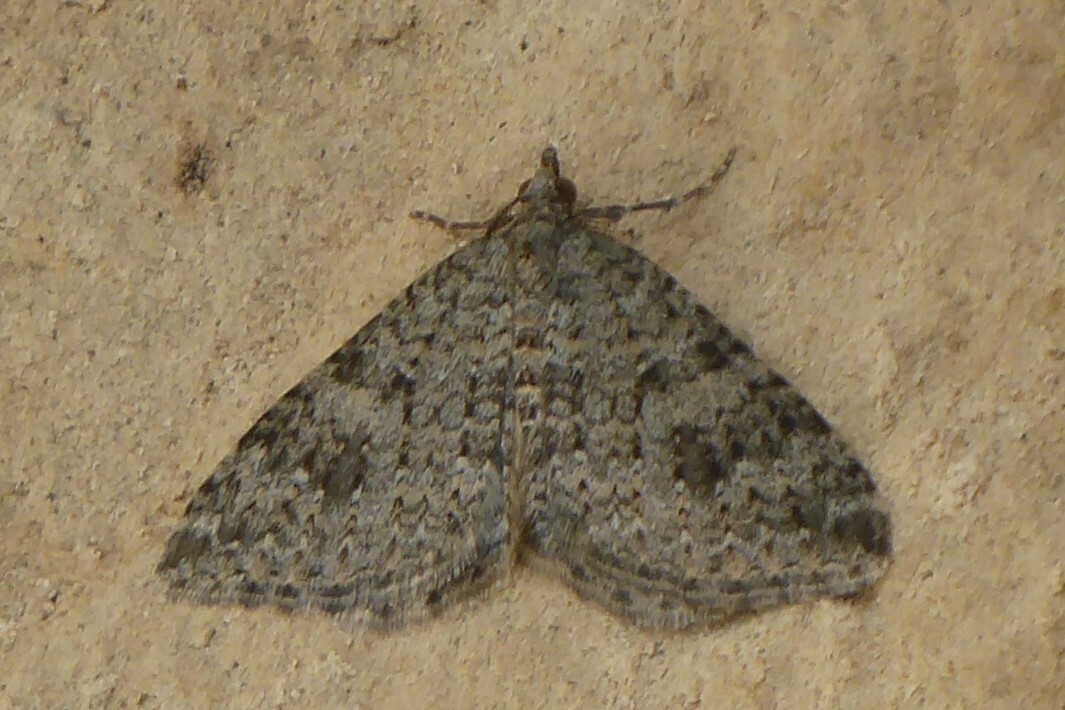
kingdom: Animalia
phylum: Arthropoda
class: Insecta
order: Lepidoptera
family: Geometridae
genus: Helastia
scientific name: Helastia corcularia
